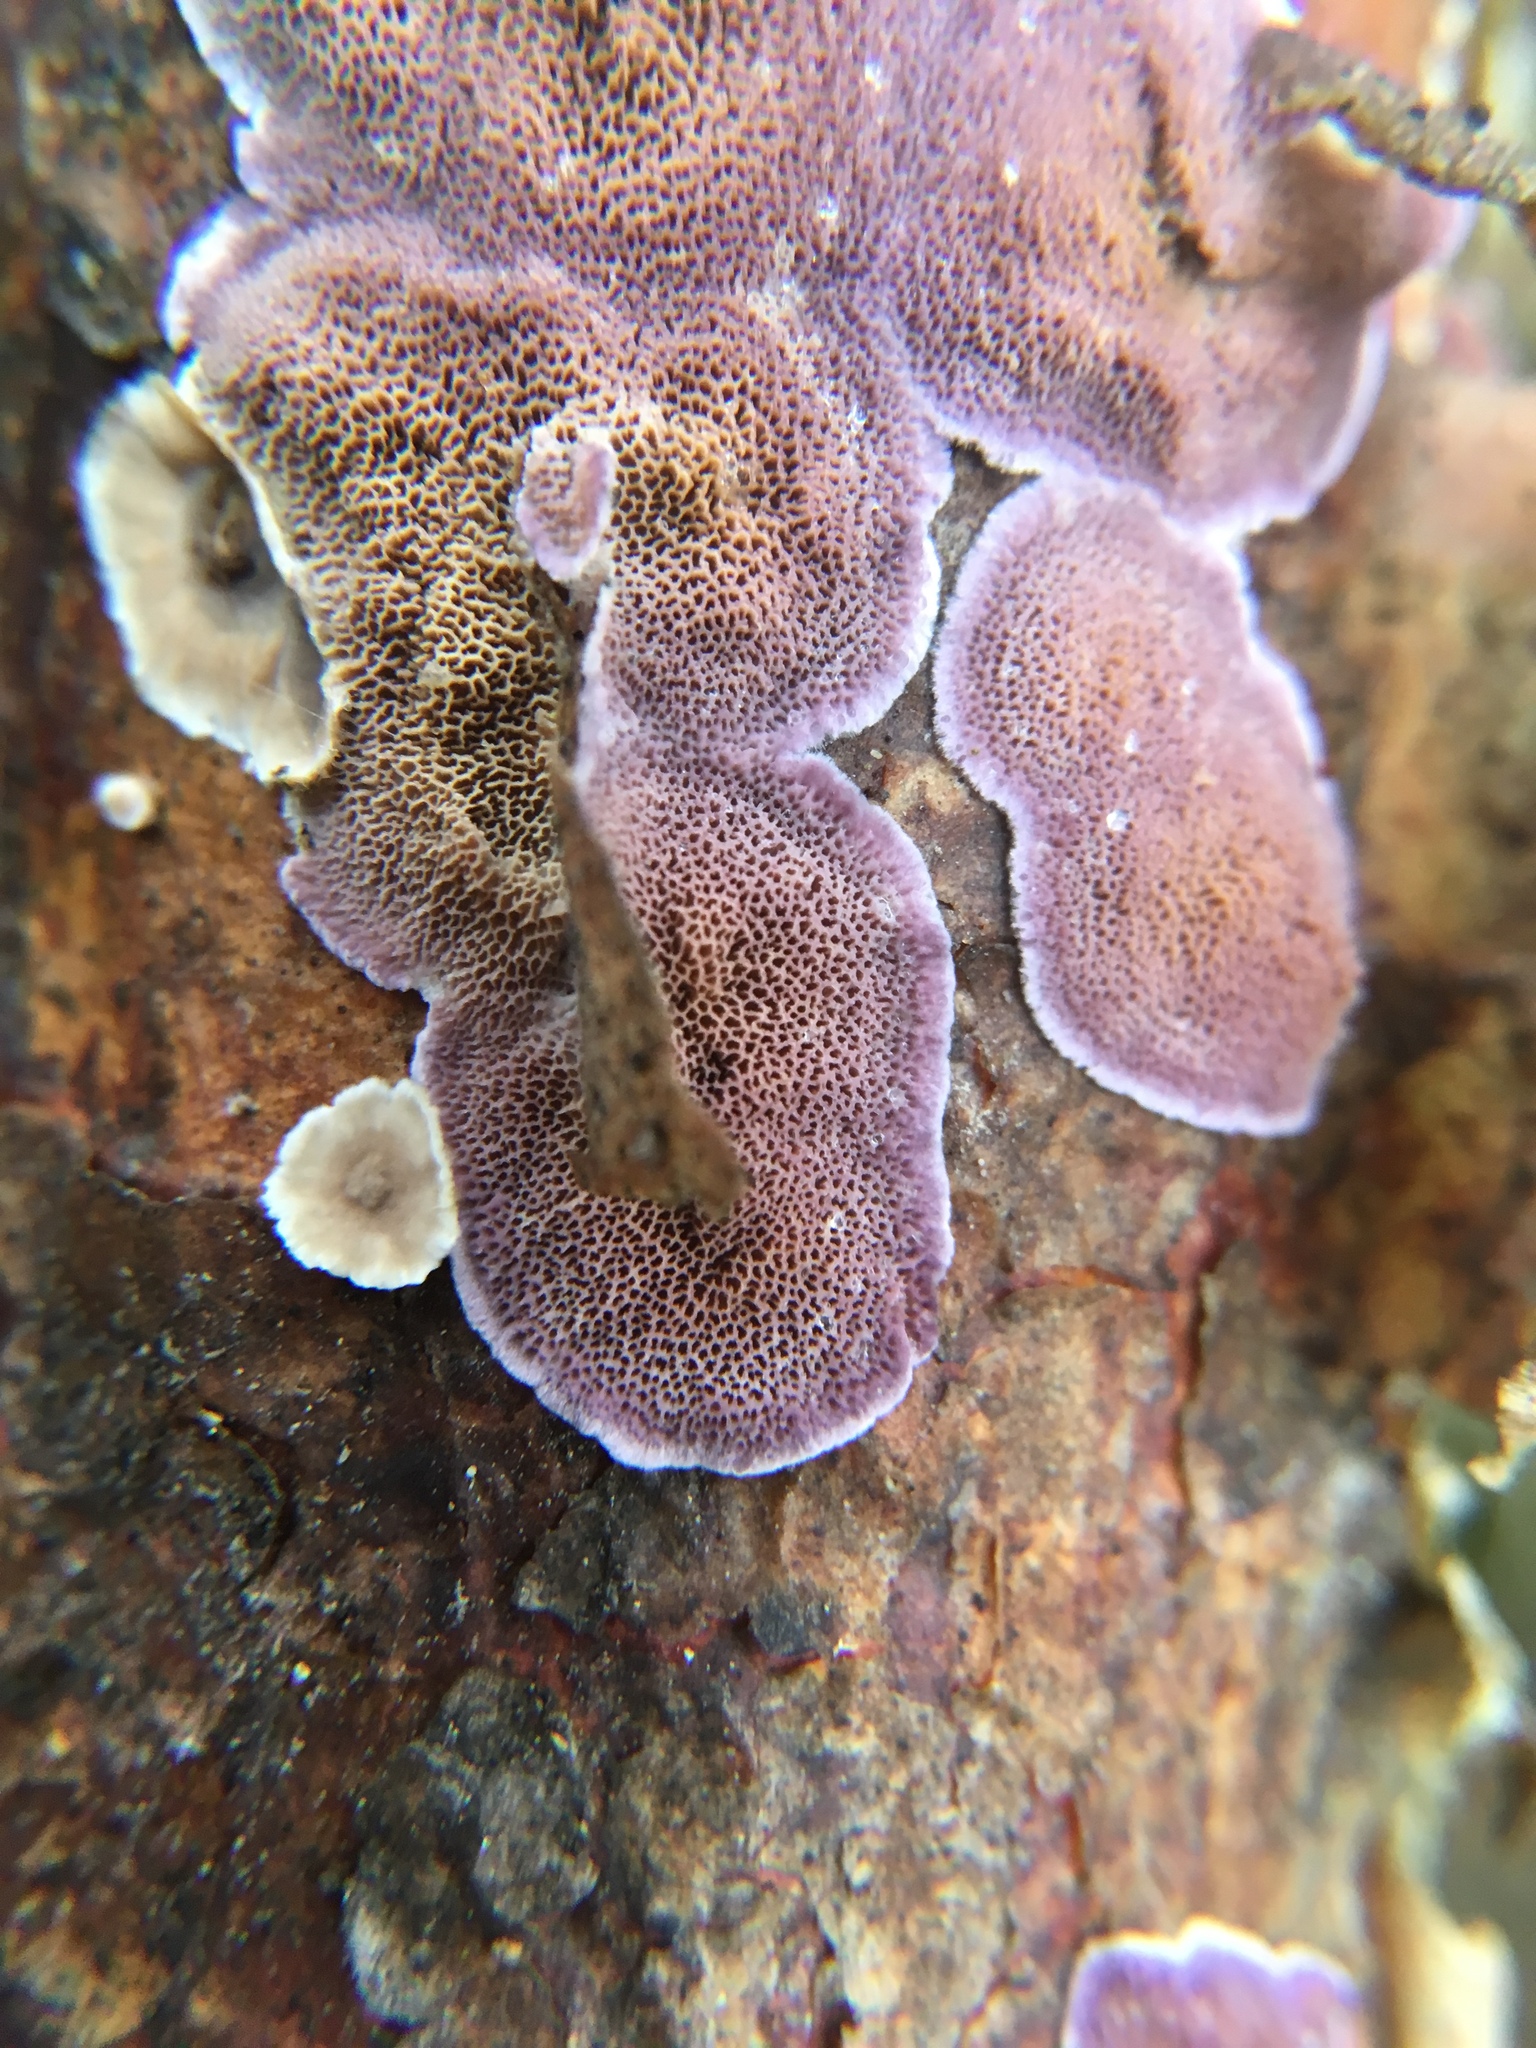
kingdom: Fungi
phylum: Basidiomycota
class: Agaricomycetes
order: Hymenochaetales
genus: Trichaptum
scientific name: Trichaptum abietinum
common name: Purplepore bracket
